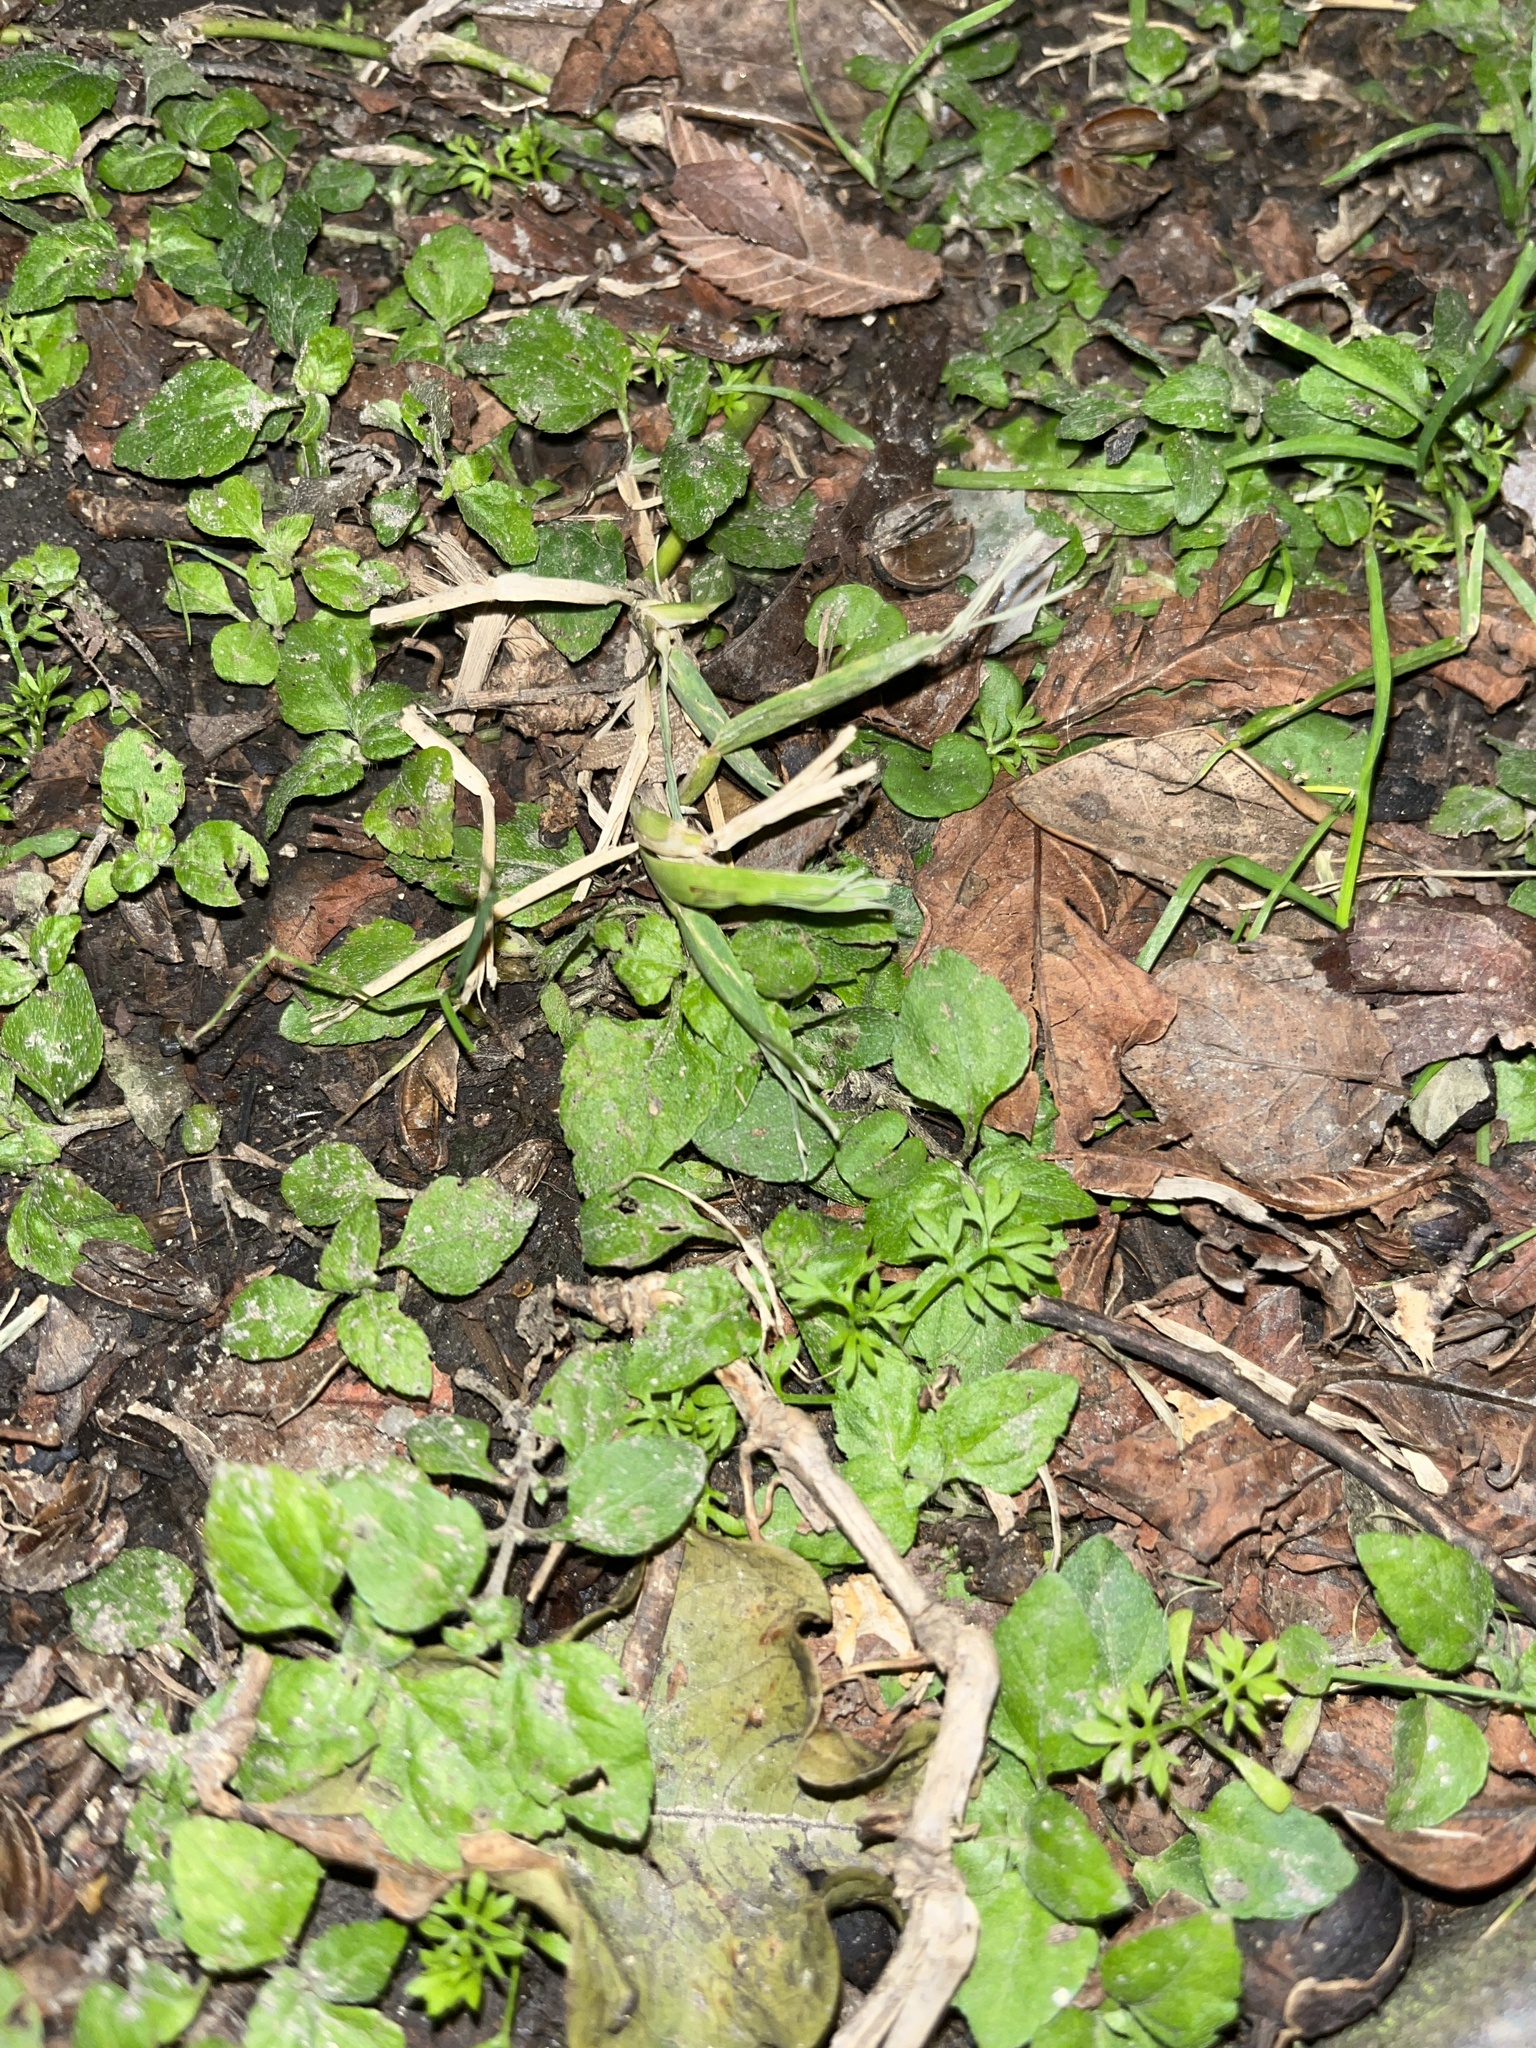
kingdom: Plantae
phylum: Tracheophyta
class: Magnoliopsida
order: Asterales
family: Asteraceae
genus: Calyptocarpus
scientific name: Calyptocarpus vialis
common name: Straggler daisy
